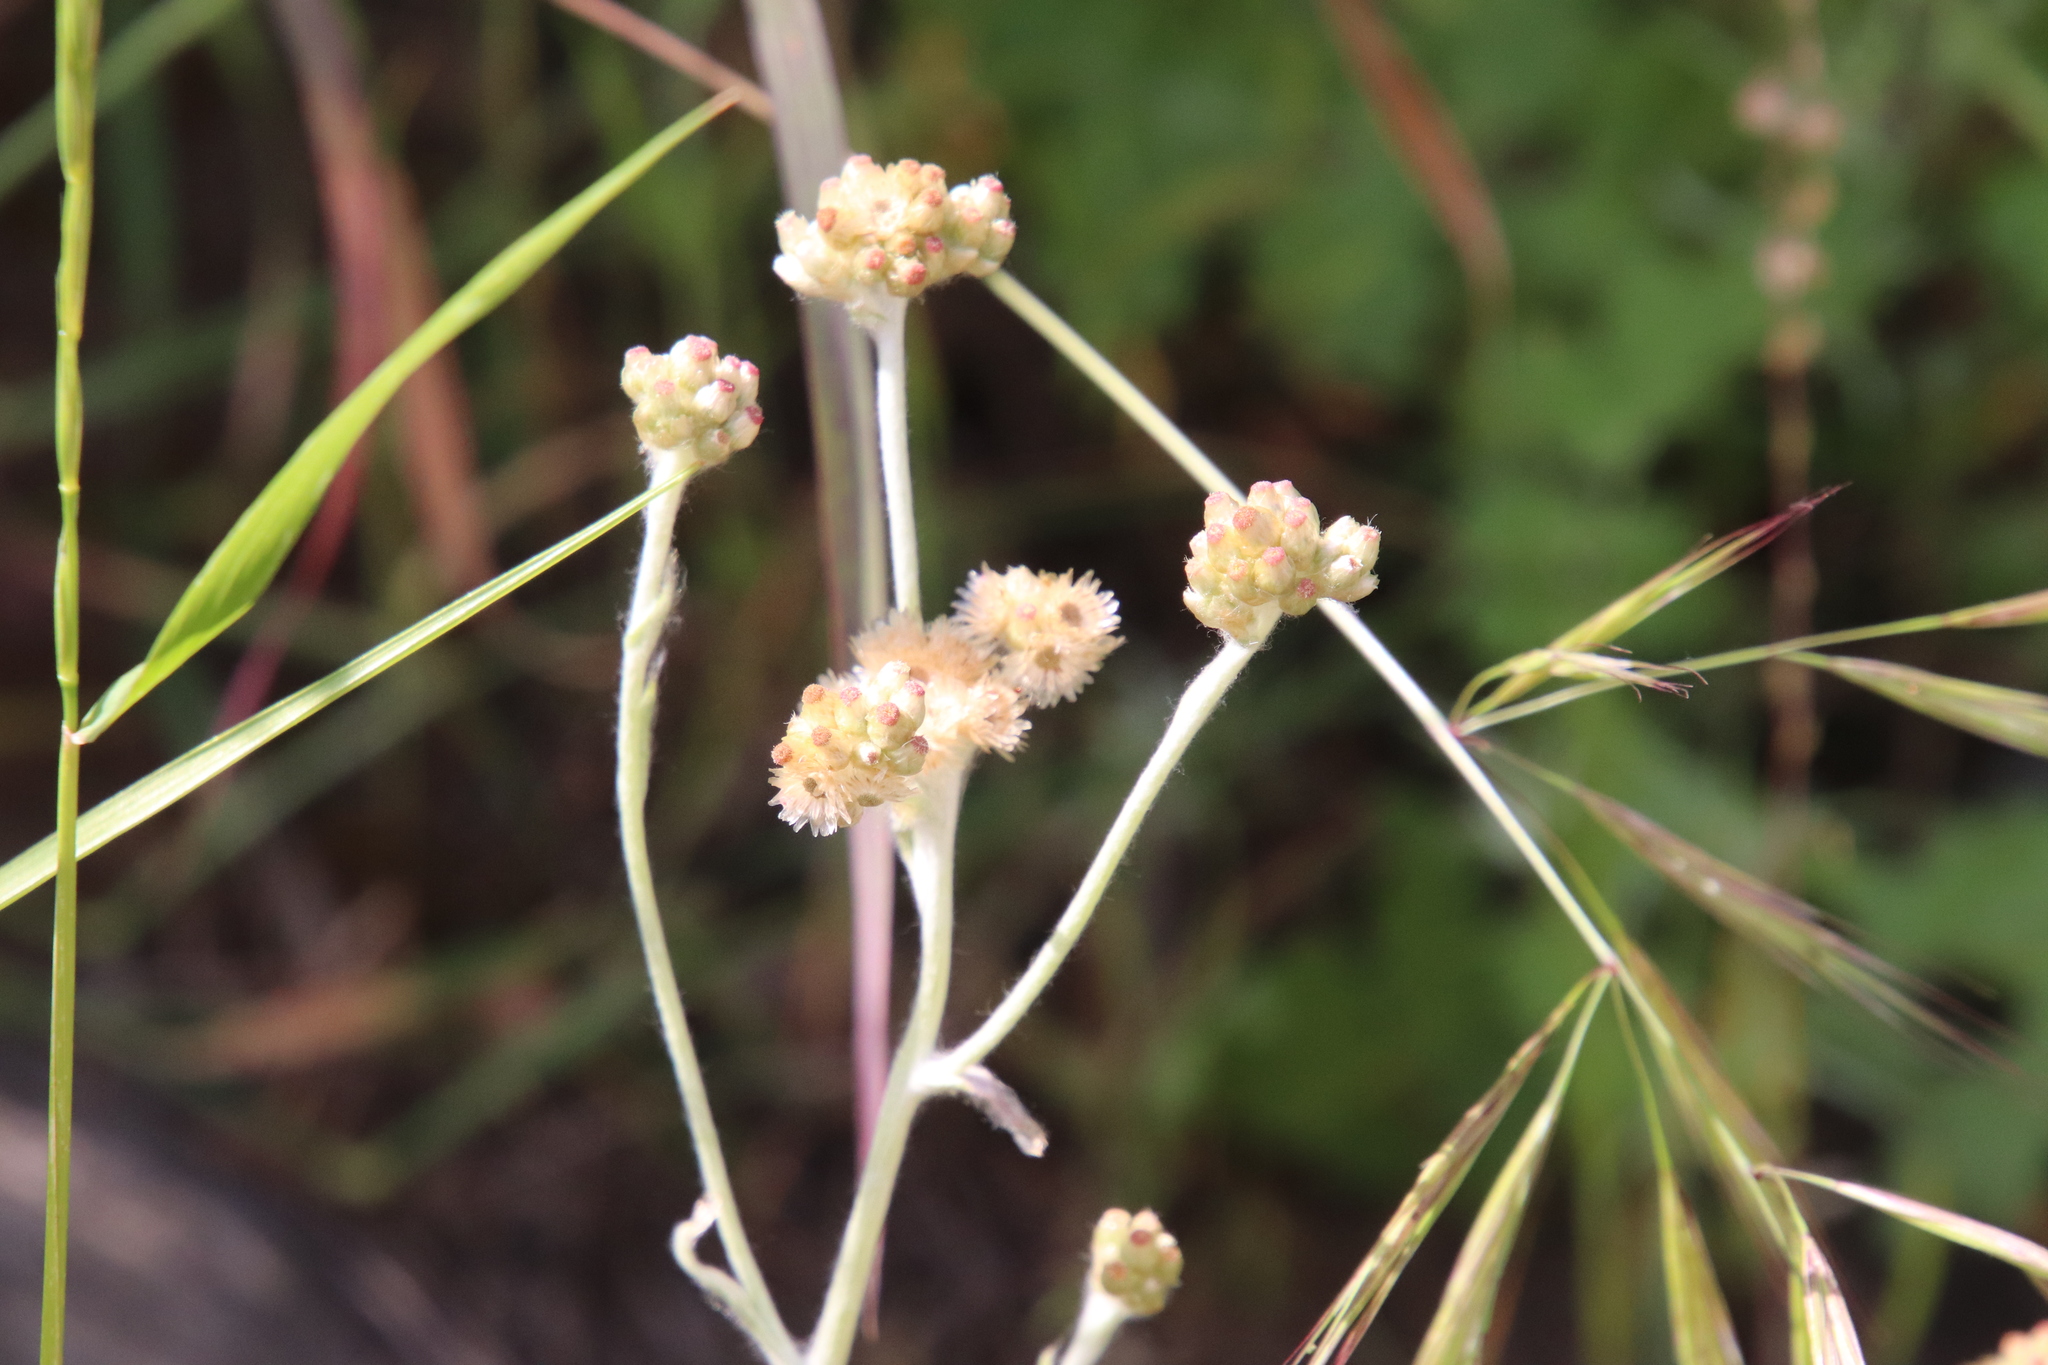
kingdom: Plantae
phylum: Tracheophyta
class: Magnoliopsida
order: Asterales
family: Asteraceae
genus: Helichrysum
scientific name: Helichrysum luteoalbum
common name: Daisy
